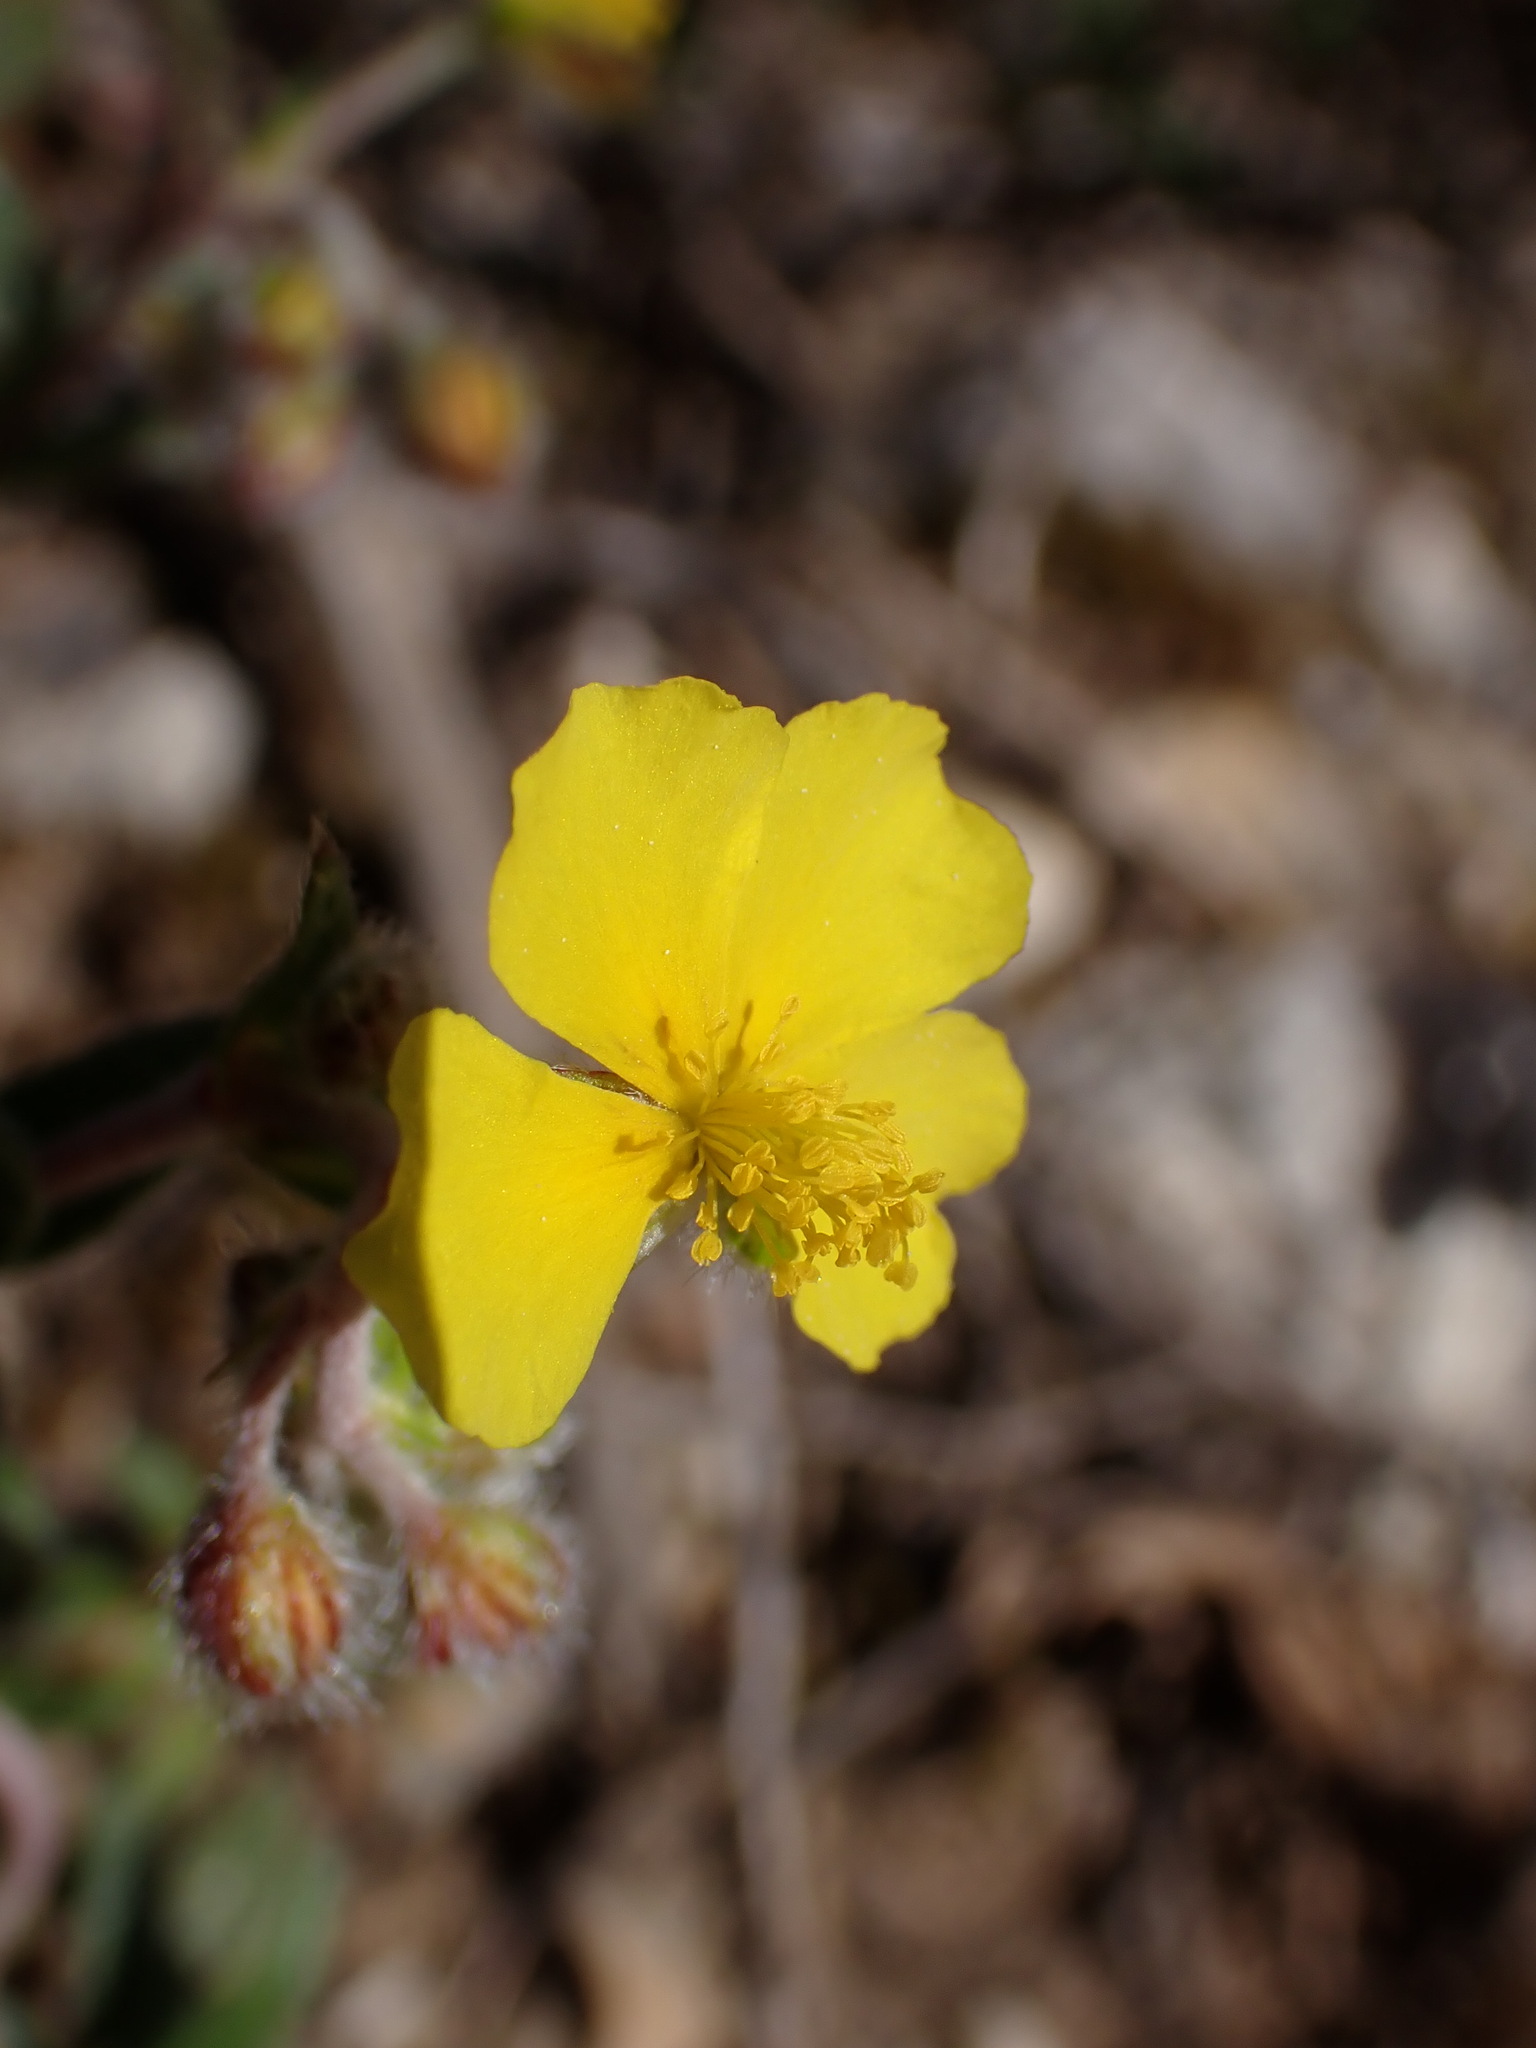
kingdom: Plantae
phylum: Tracheophyta
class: Magnoliopsida
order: Malvales
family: Cistaceae
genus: Helianthemum
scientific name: Helianthemum oelandicum
